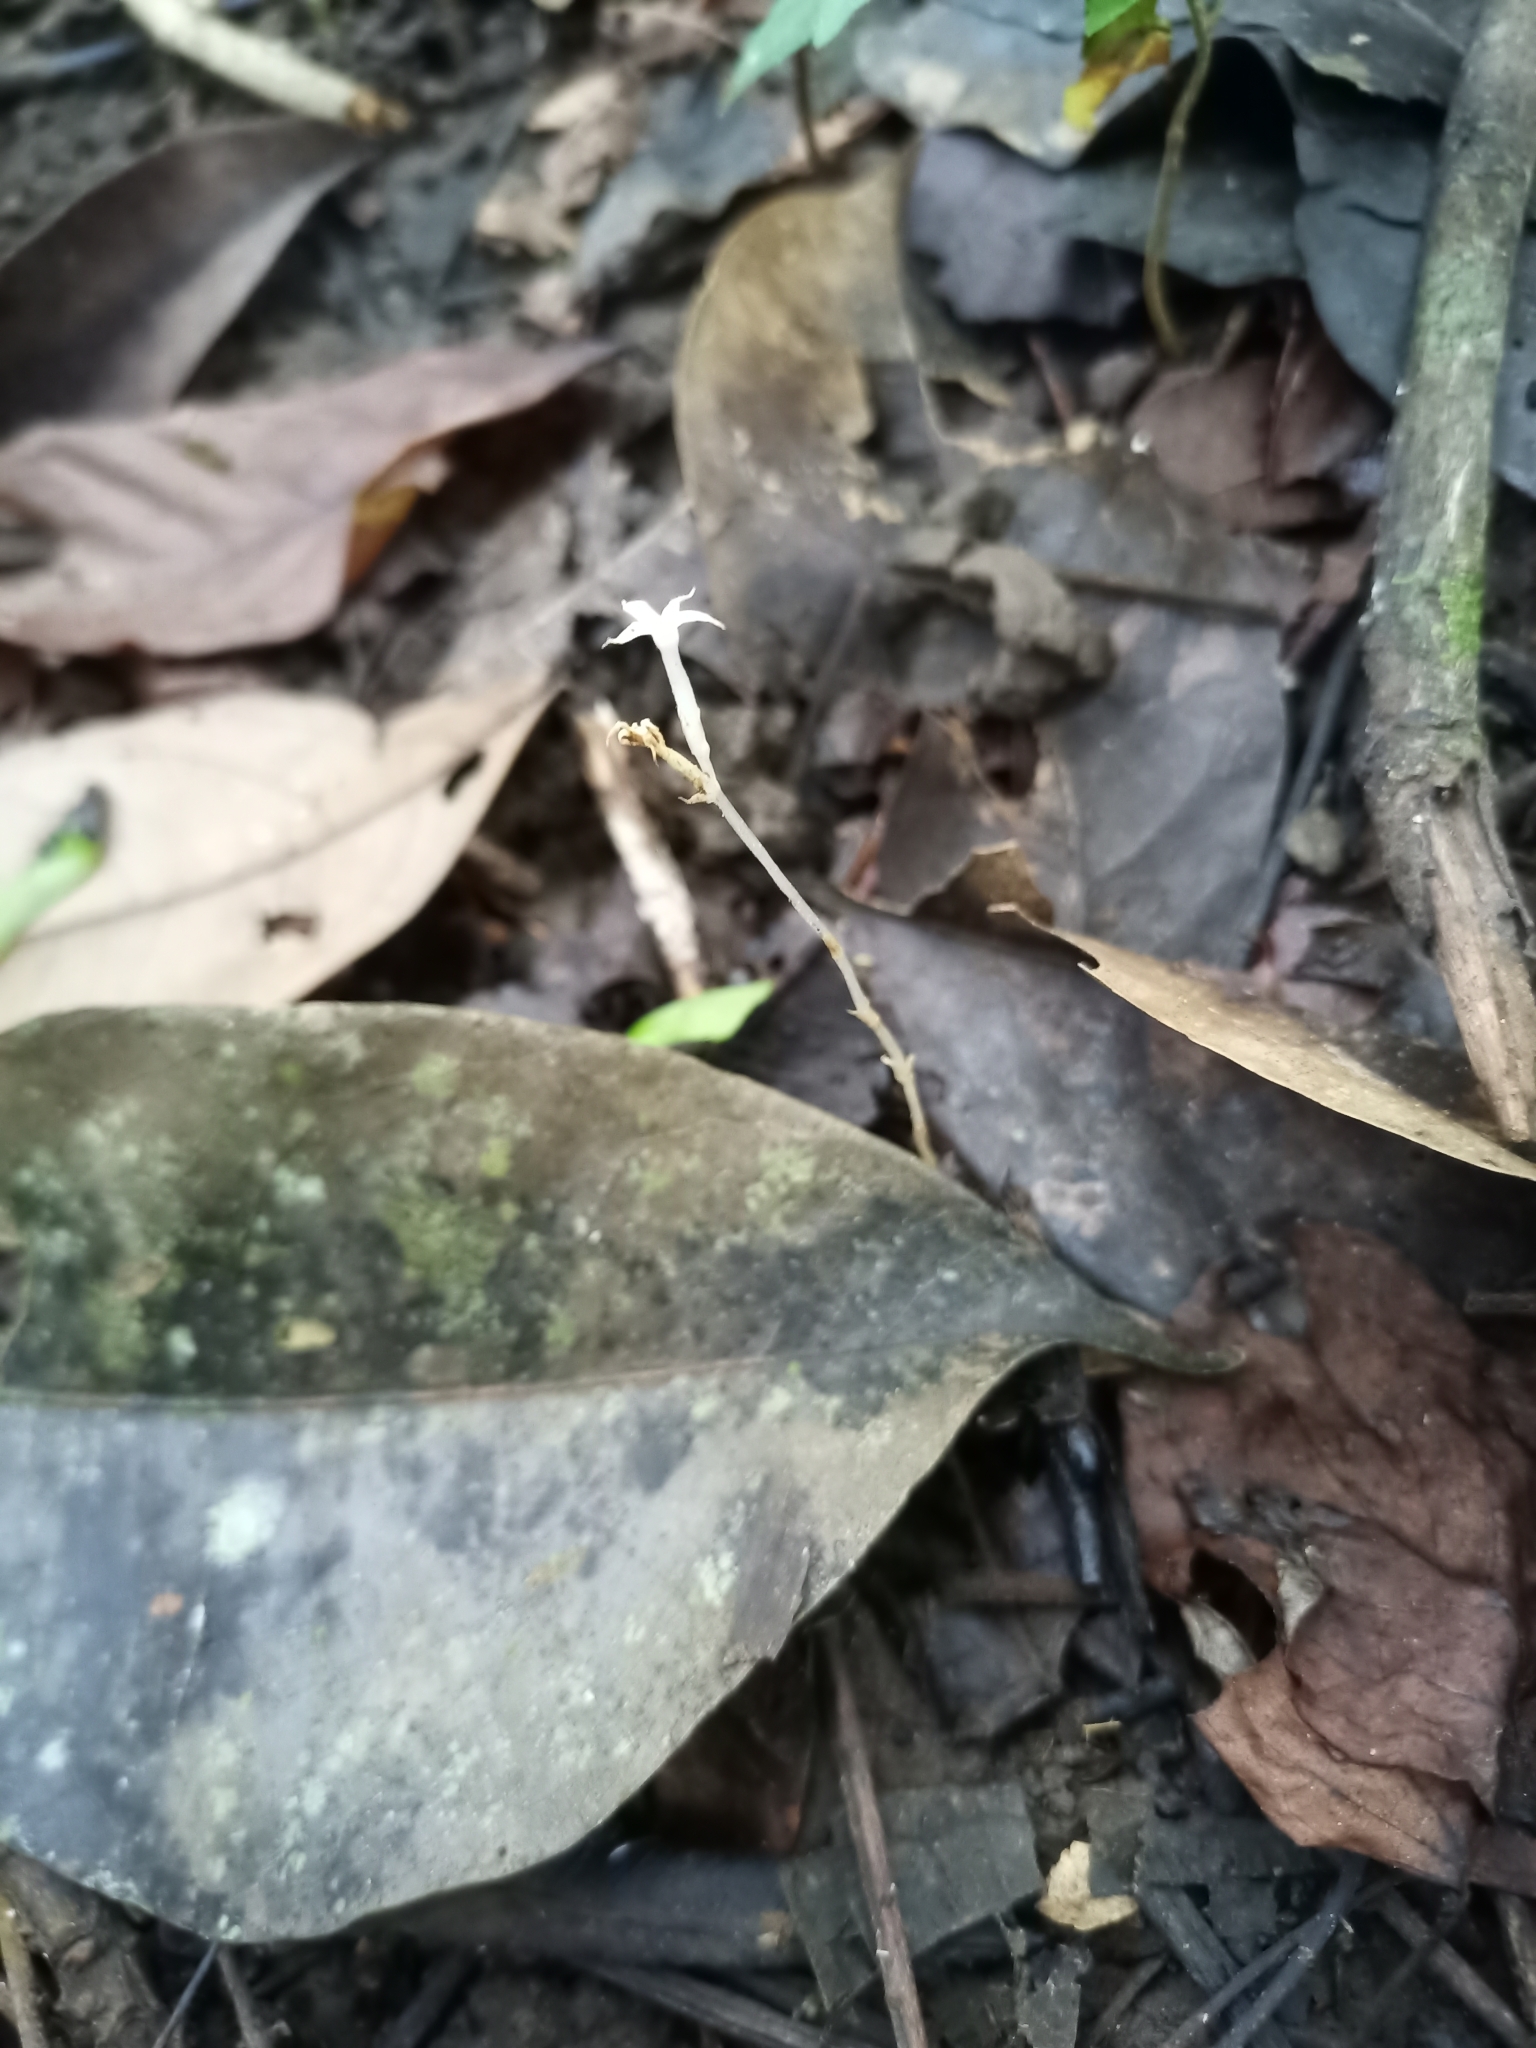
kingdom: Plantae
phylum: Tracheophyta
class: Magnoliopsida
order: Gentianales
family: Gentianaceae
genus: Voyria
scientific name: Voyria alba
